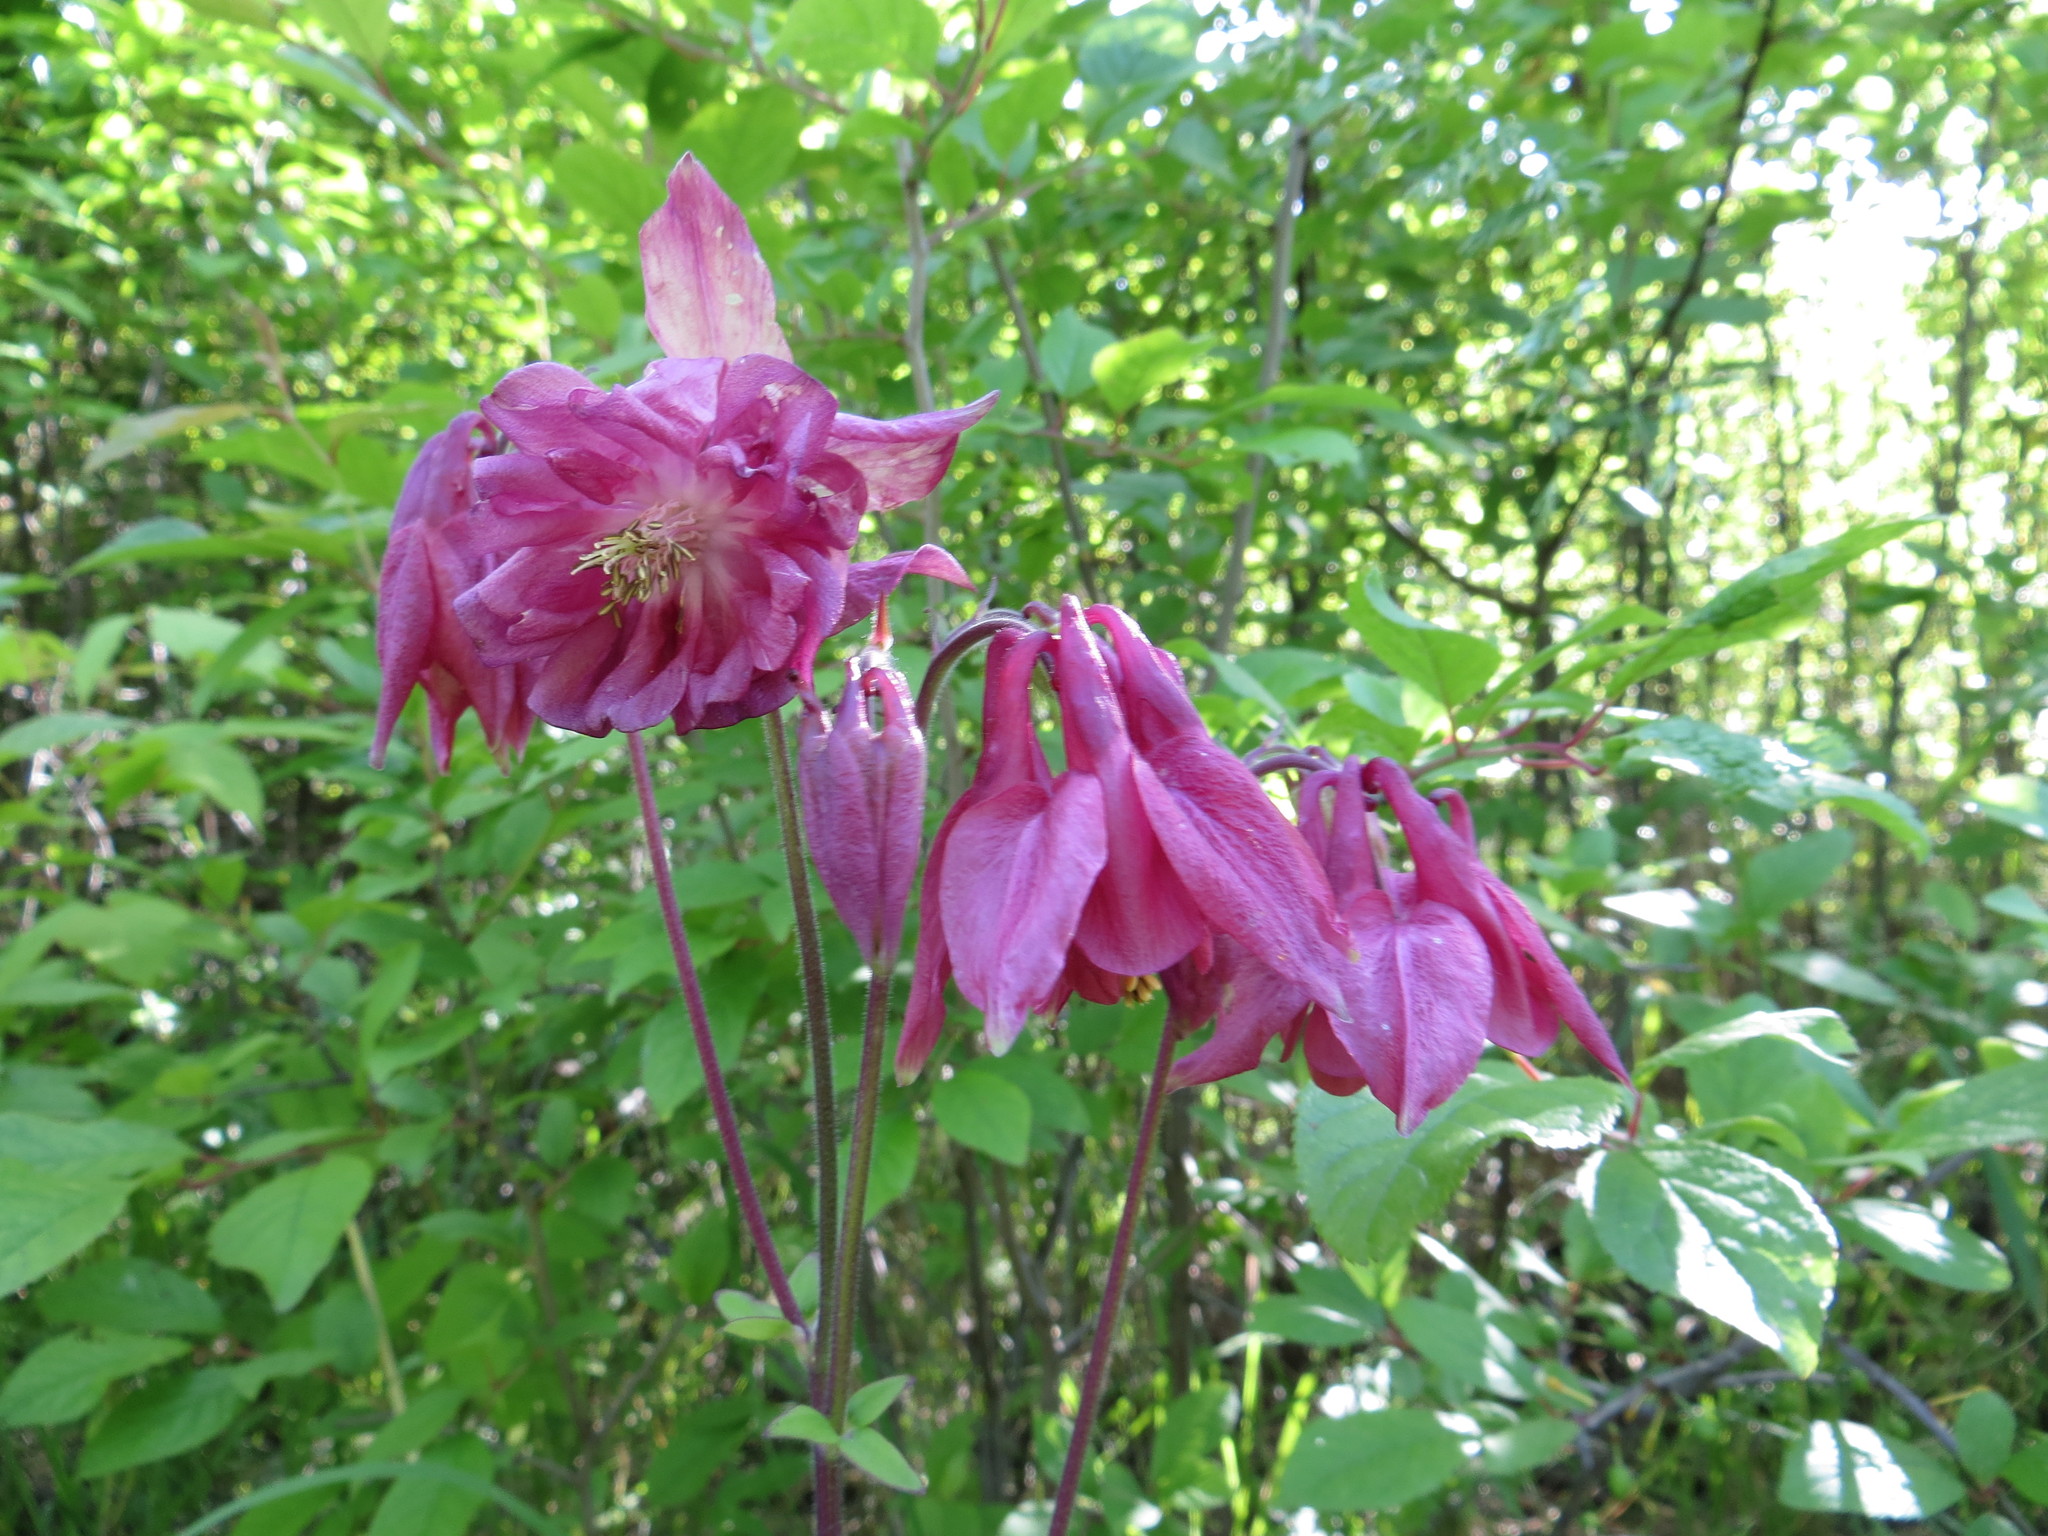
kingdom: Plantae
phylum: Tracheophyta
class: Magnoliopsida
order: Ranunculales
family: Ranunculaceae
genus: Aquilegia
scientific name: Aquilegia vulgaris
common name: Columbine
